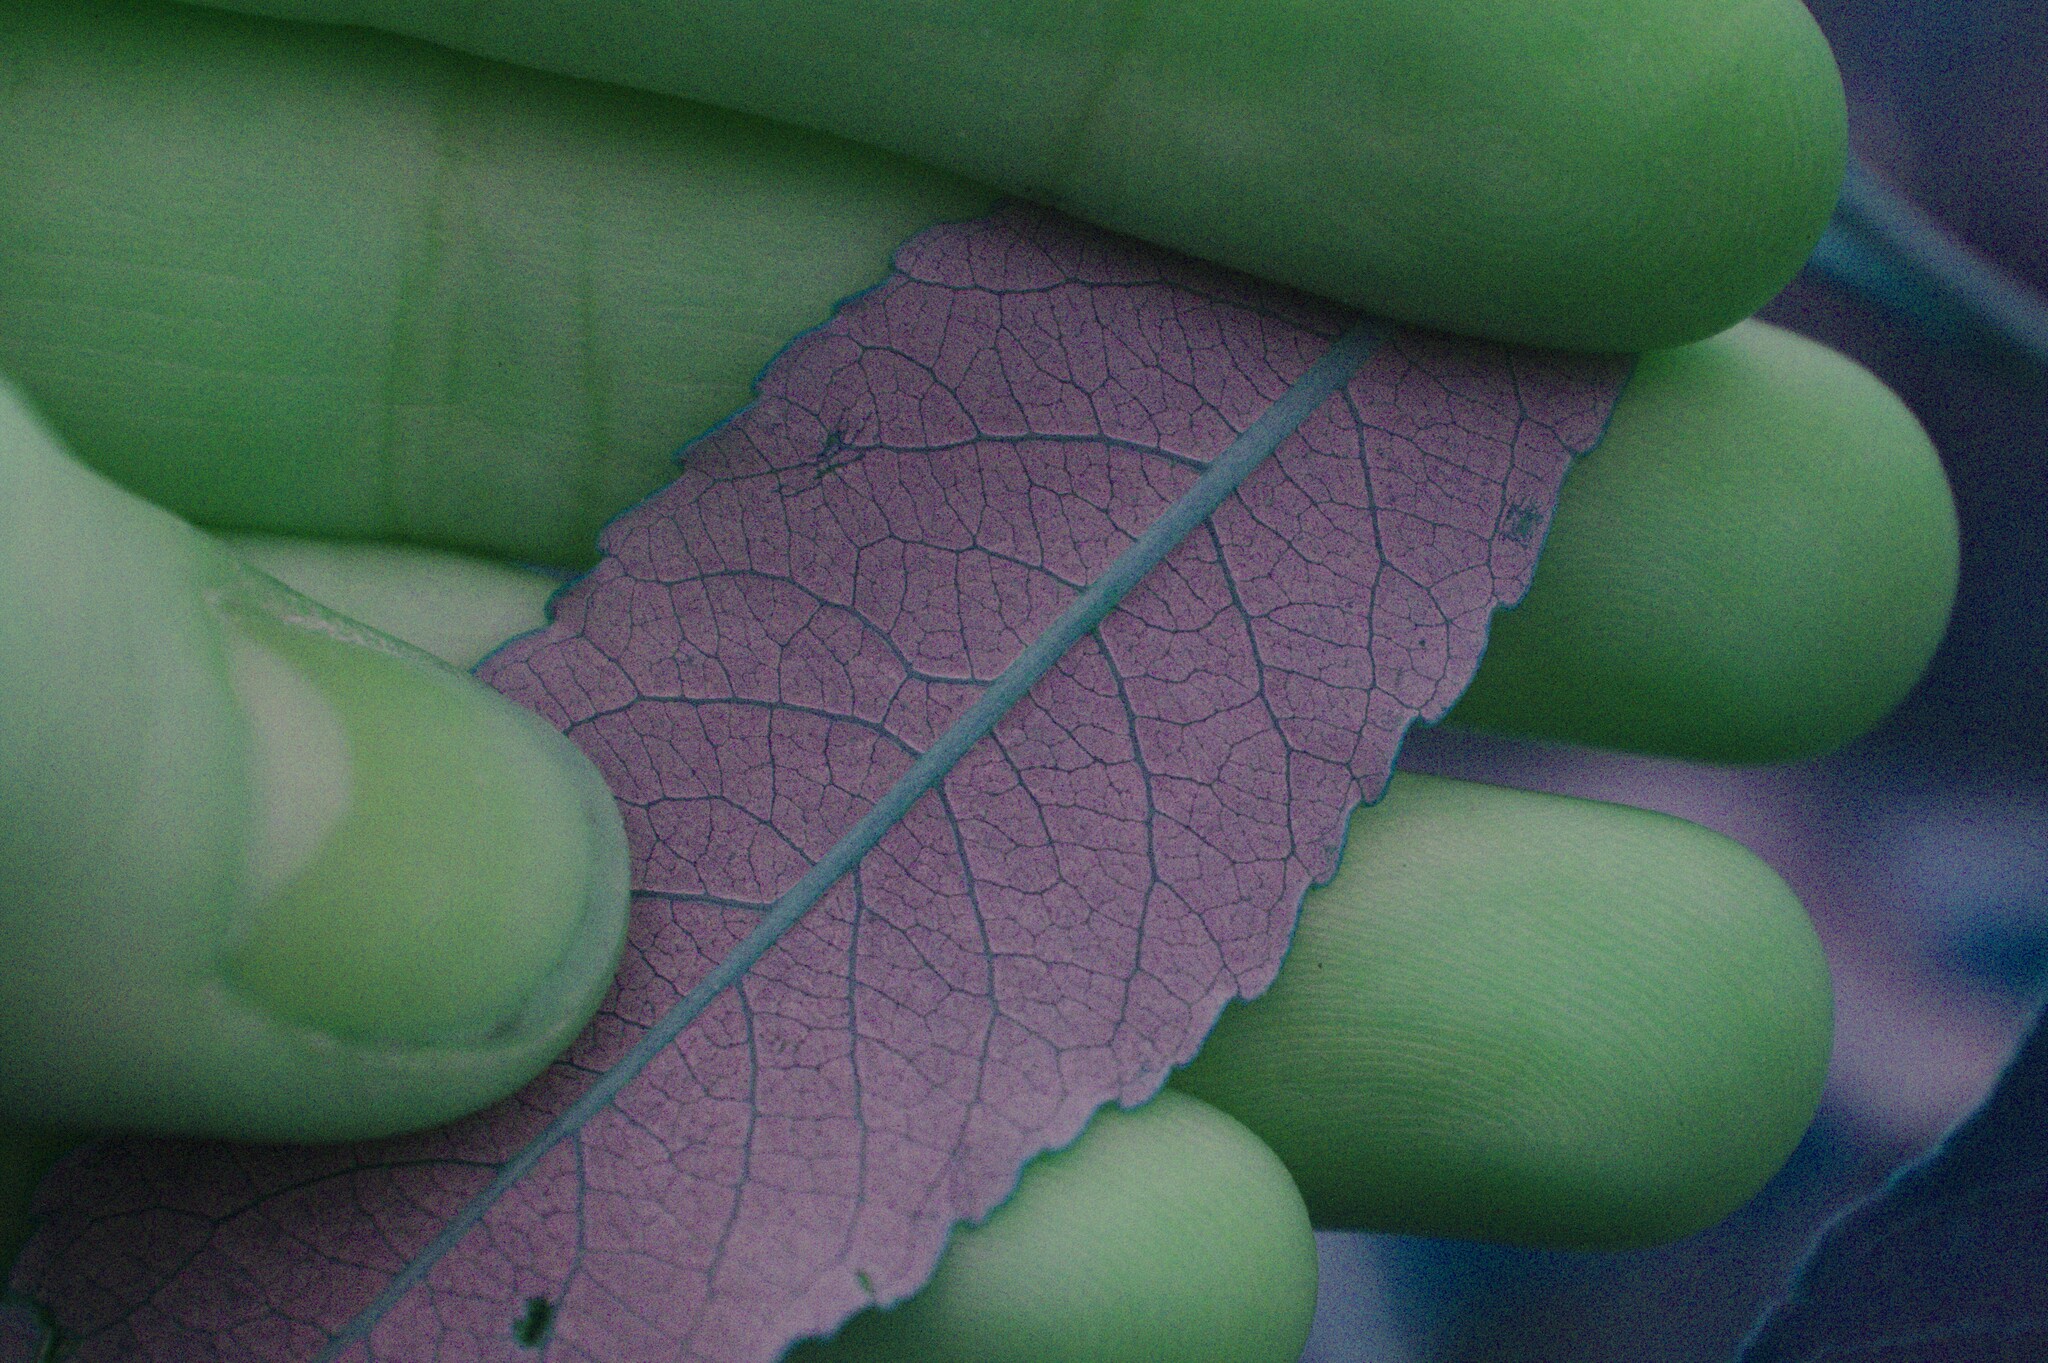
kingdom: Plantae
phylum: Tracheophyta
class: Magnoliopsida
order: Malpighiales
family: Salicaceae
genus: Salix
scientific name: Salix discolor
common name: Glaucous willow
